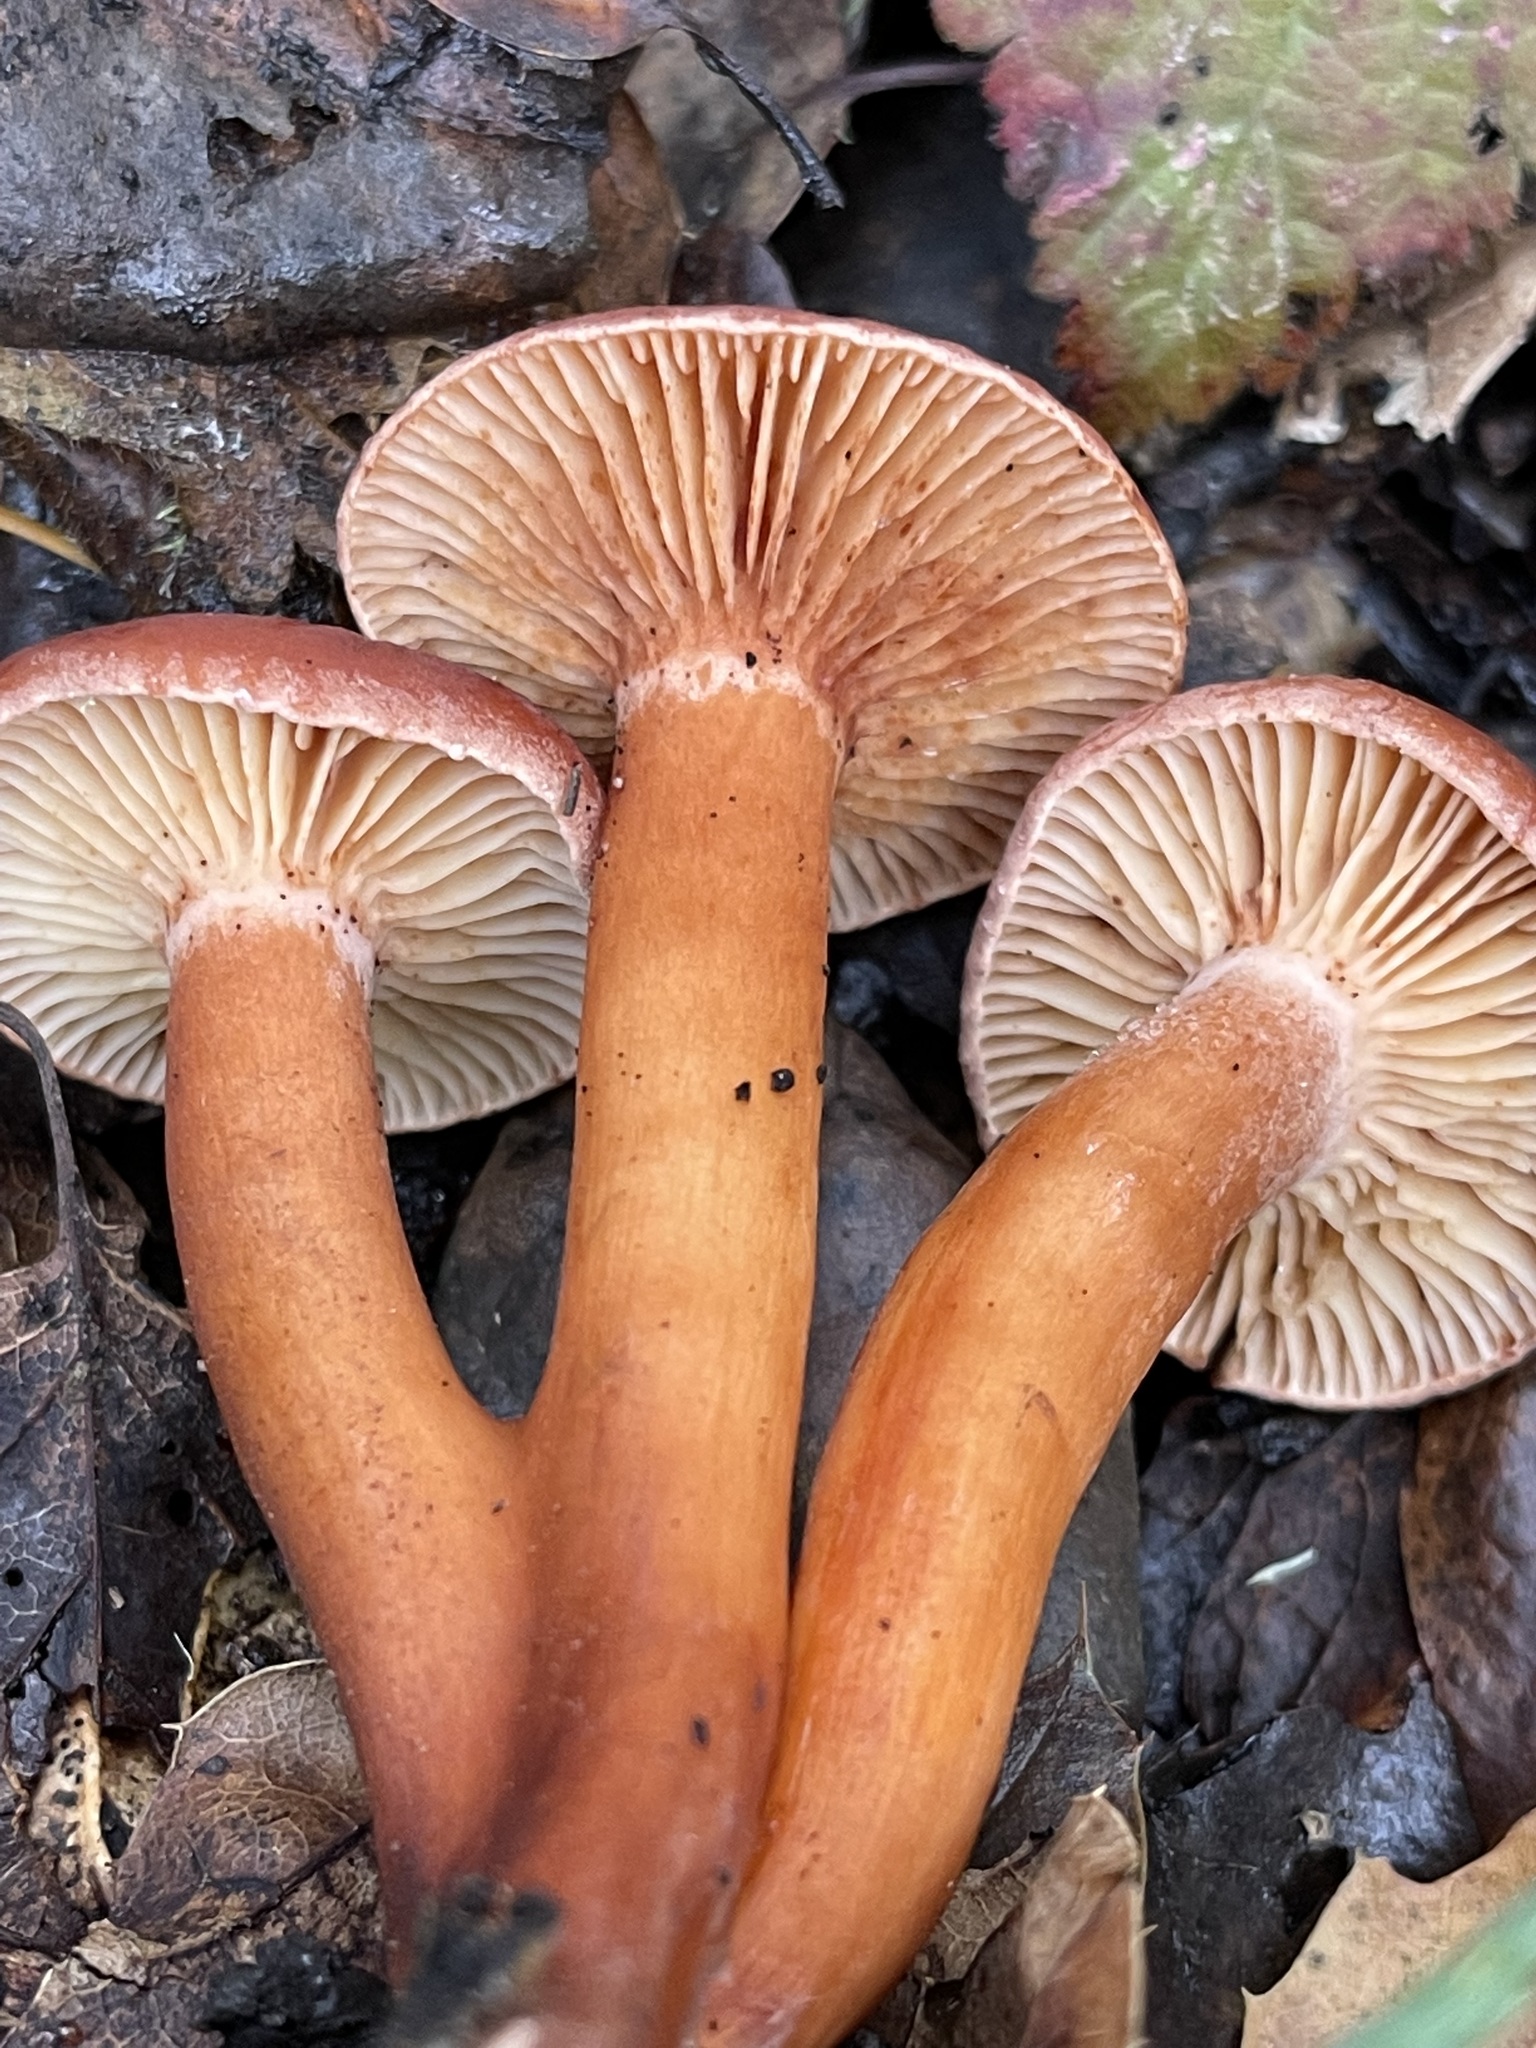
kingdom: Fungi
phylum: Basidiomycota
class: Agaricomycetes
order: Russulales
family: Russulaceae
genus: Lactarius
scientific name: Lactarius rufulus
